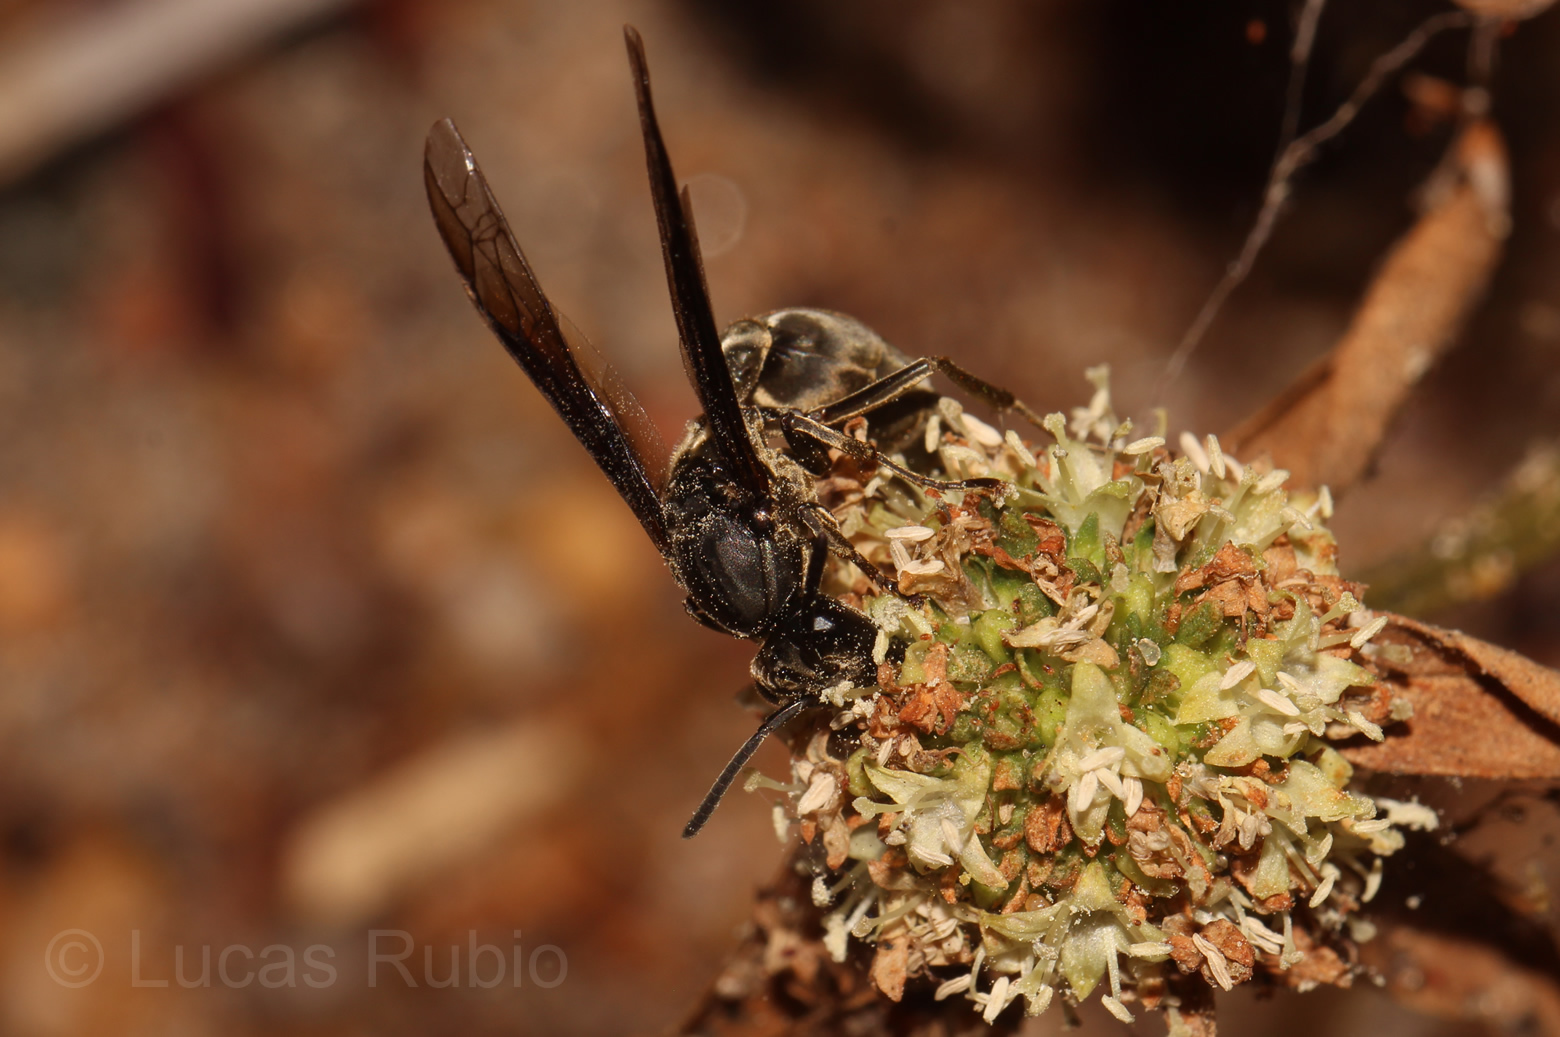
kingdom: Animalia
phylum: Arthropoda
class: Insecta
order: Hymenoptera
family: Eumenidae
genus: Polybia
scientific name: Polybia ignobilis
